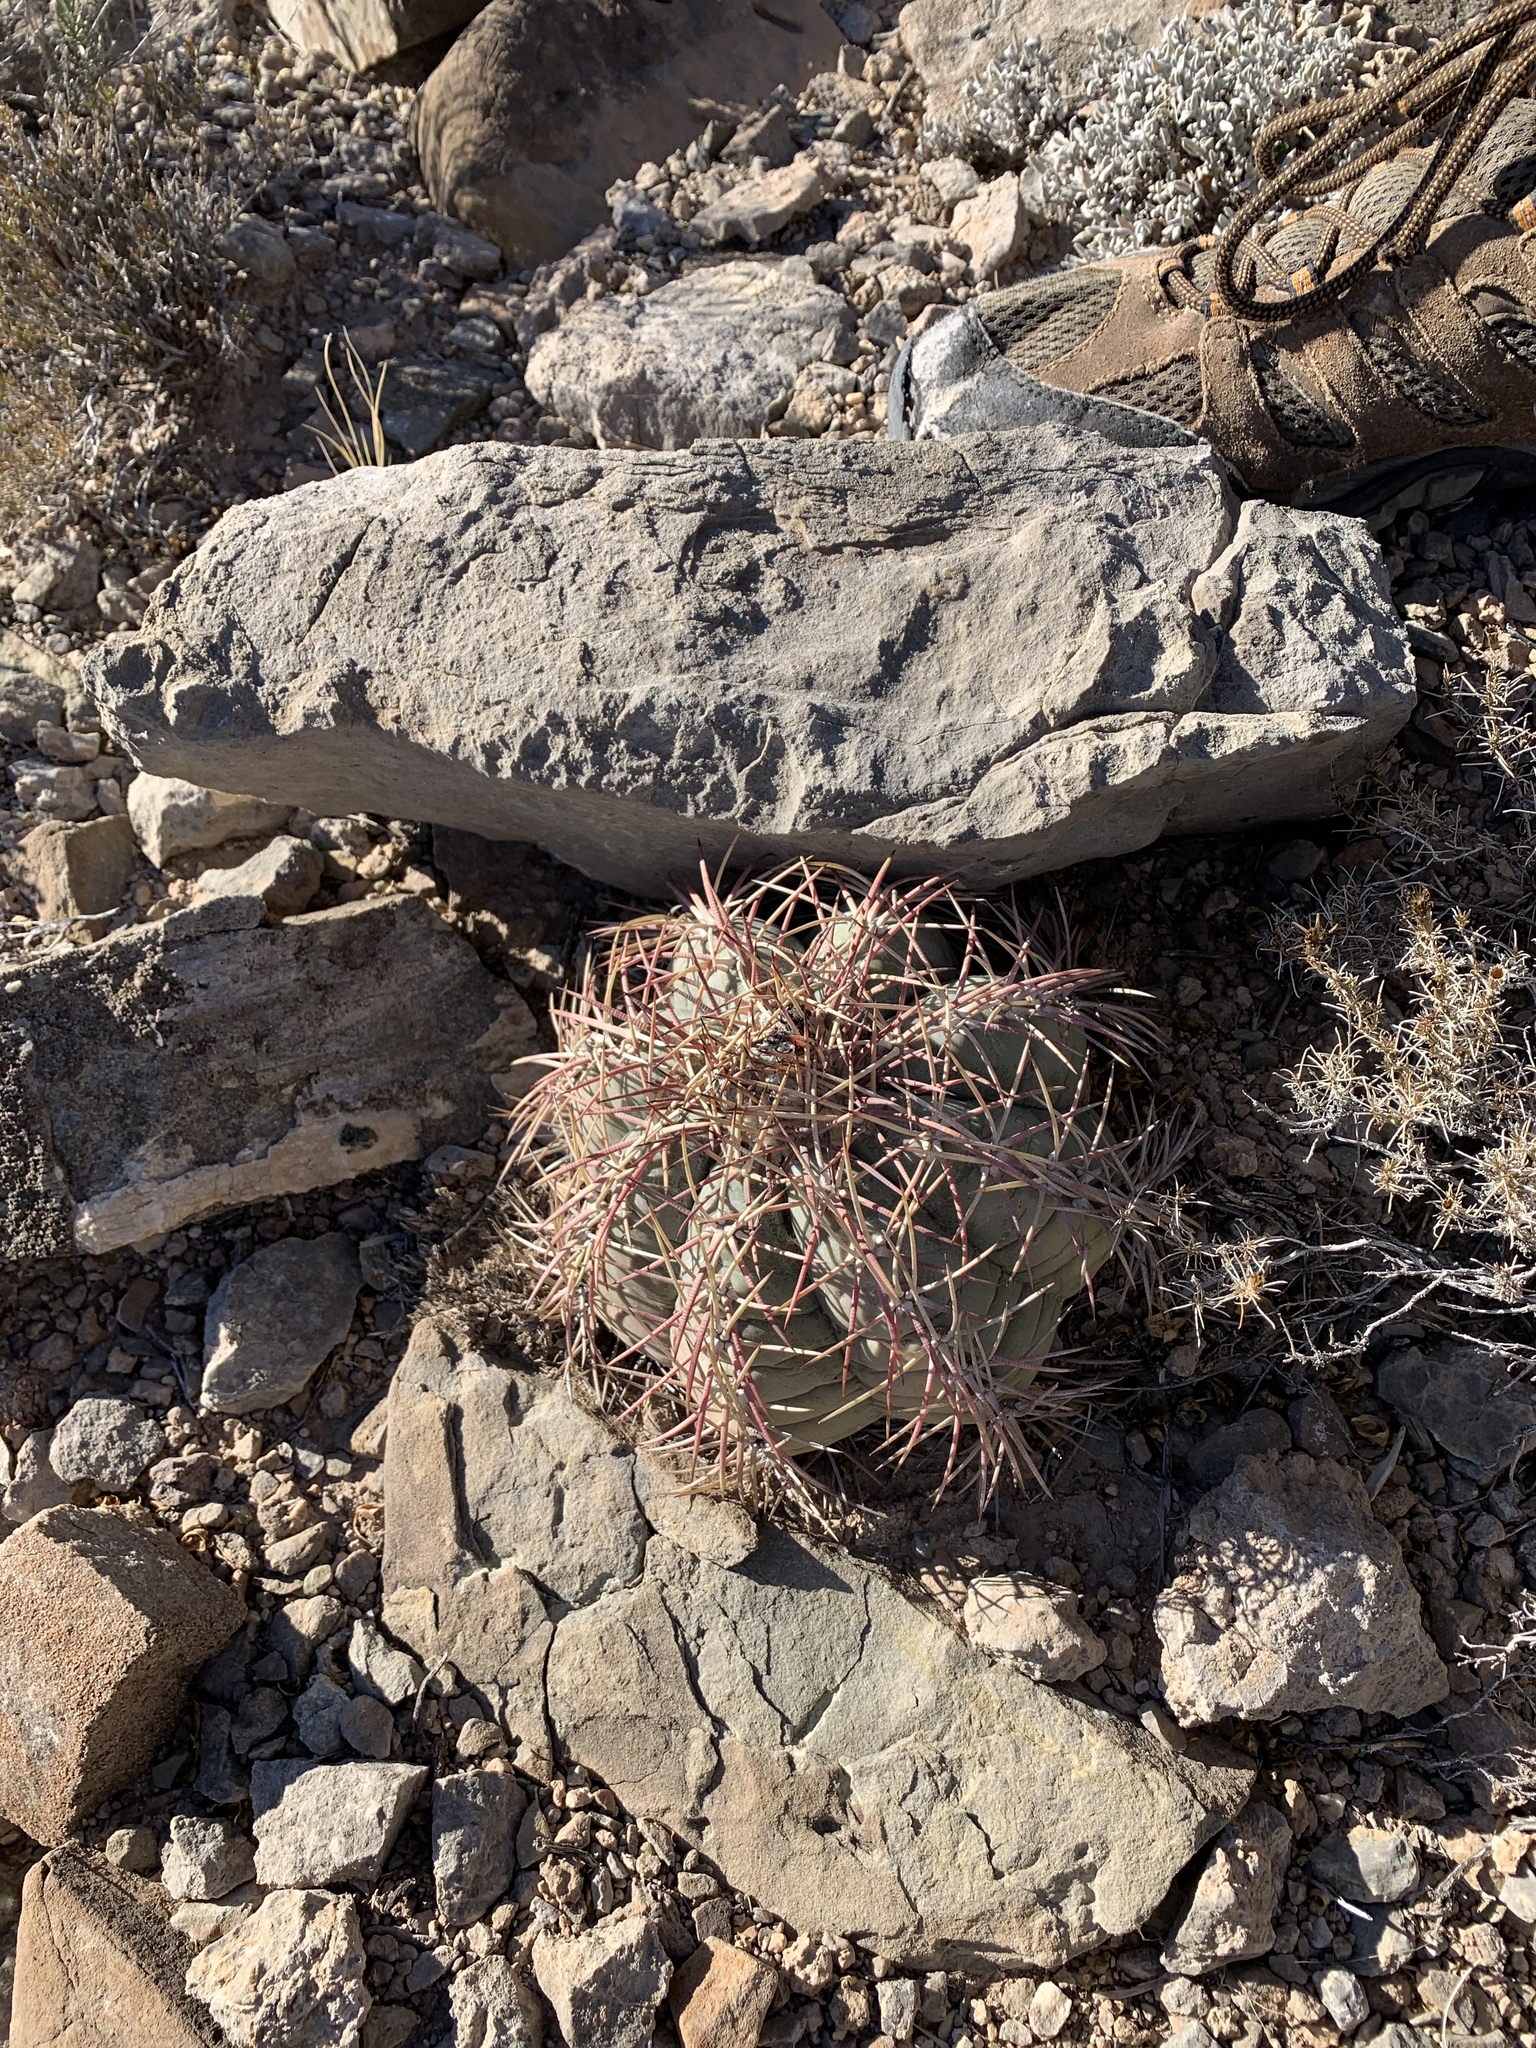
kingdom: Plantae
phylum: Tracheophyta
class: Magnoliopsida
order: Caryophyllales
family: Cactaceae
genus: Echinocactus
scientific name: Echinocactus horizonthalonius
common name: Devilshead
